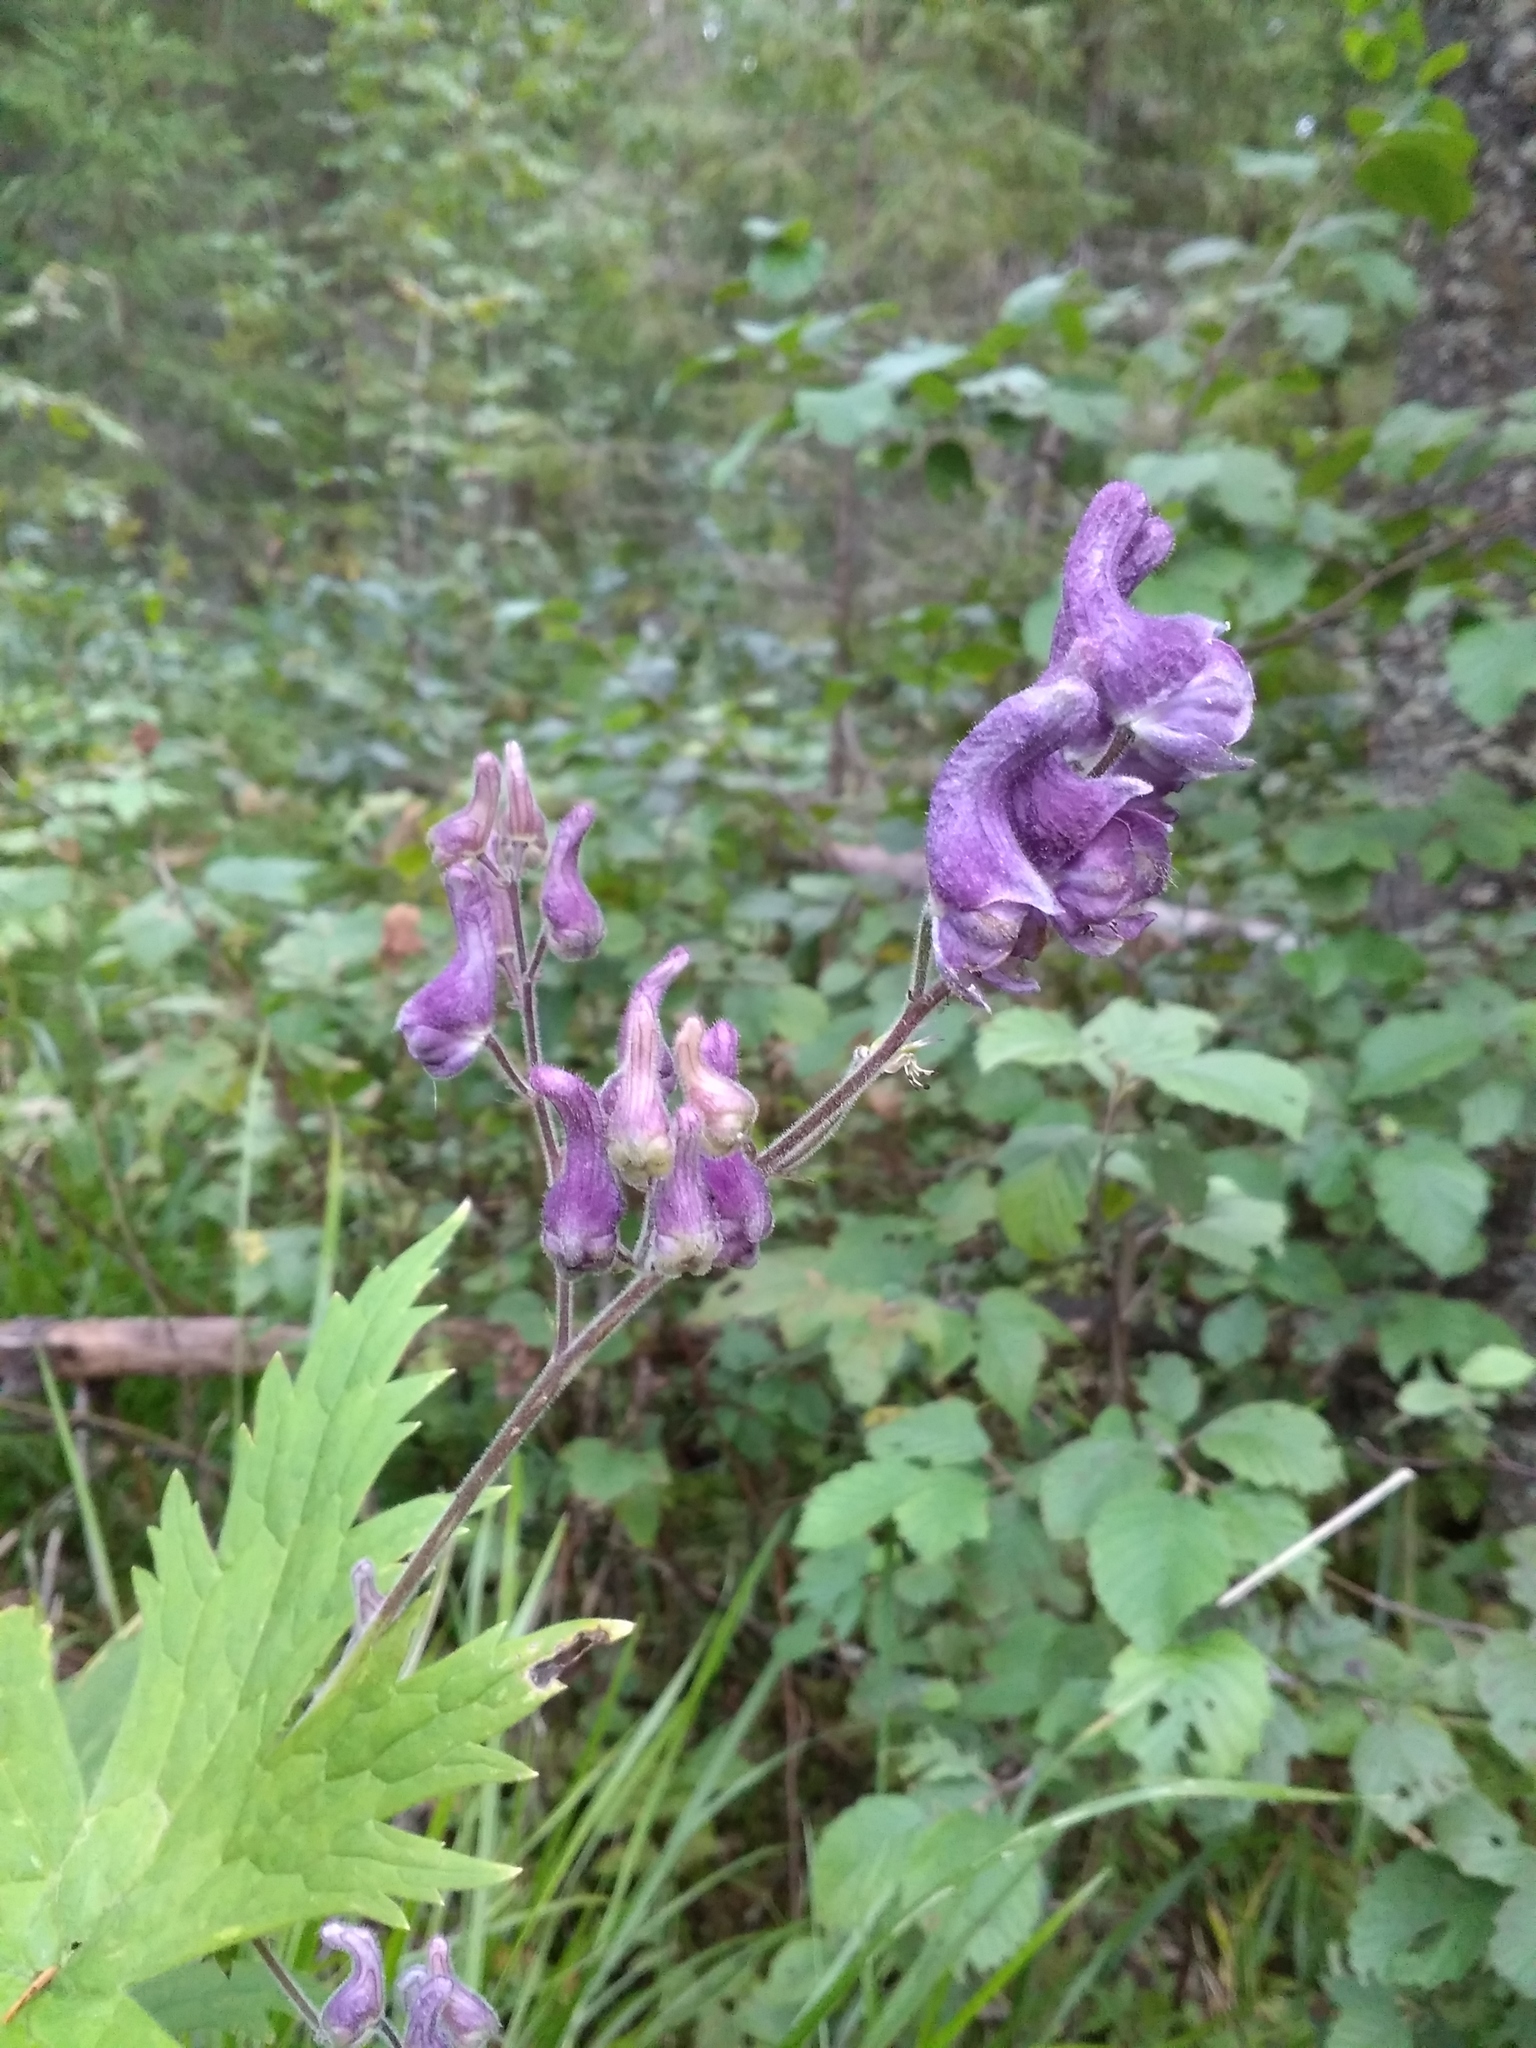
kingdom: Plantae
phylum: Tracheophyta
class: Magnoliopsida
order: Ranunculales
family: Ranunculaceae
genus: Aconitum
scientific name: Aconitum septentrionale
